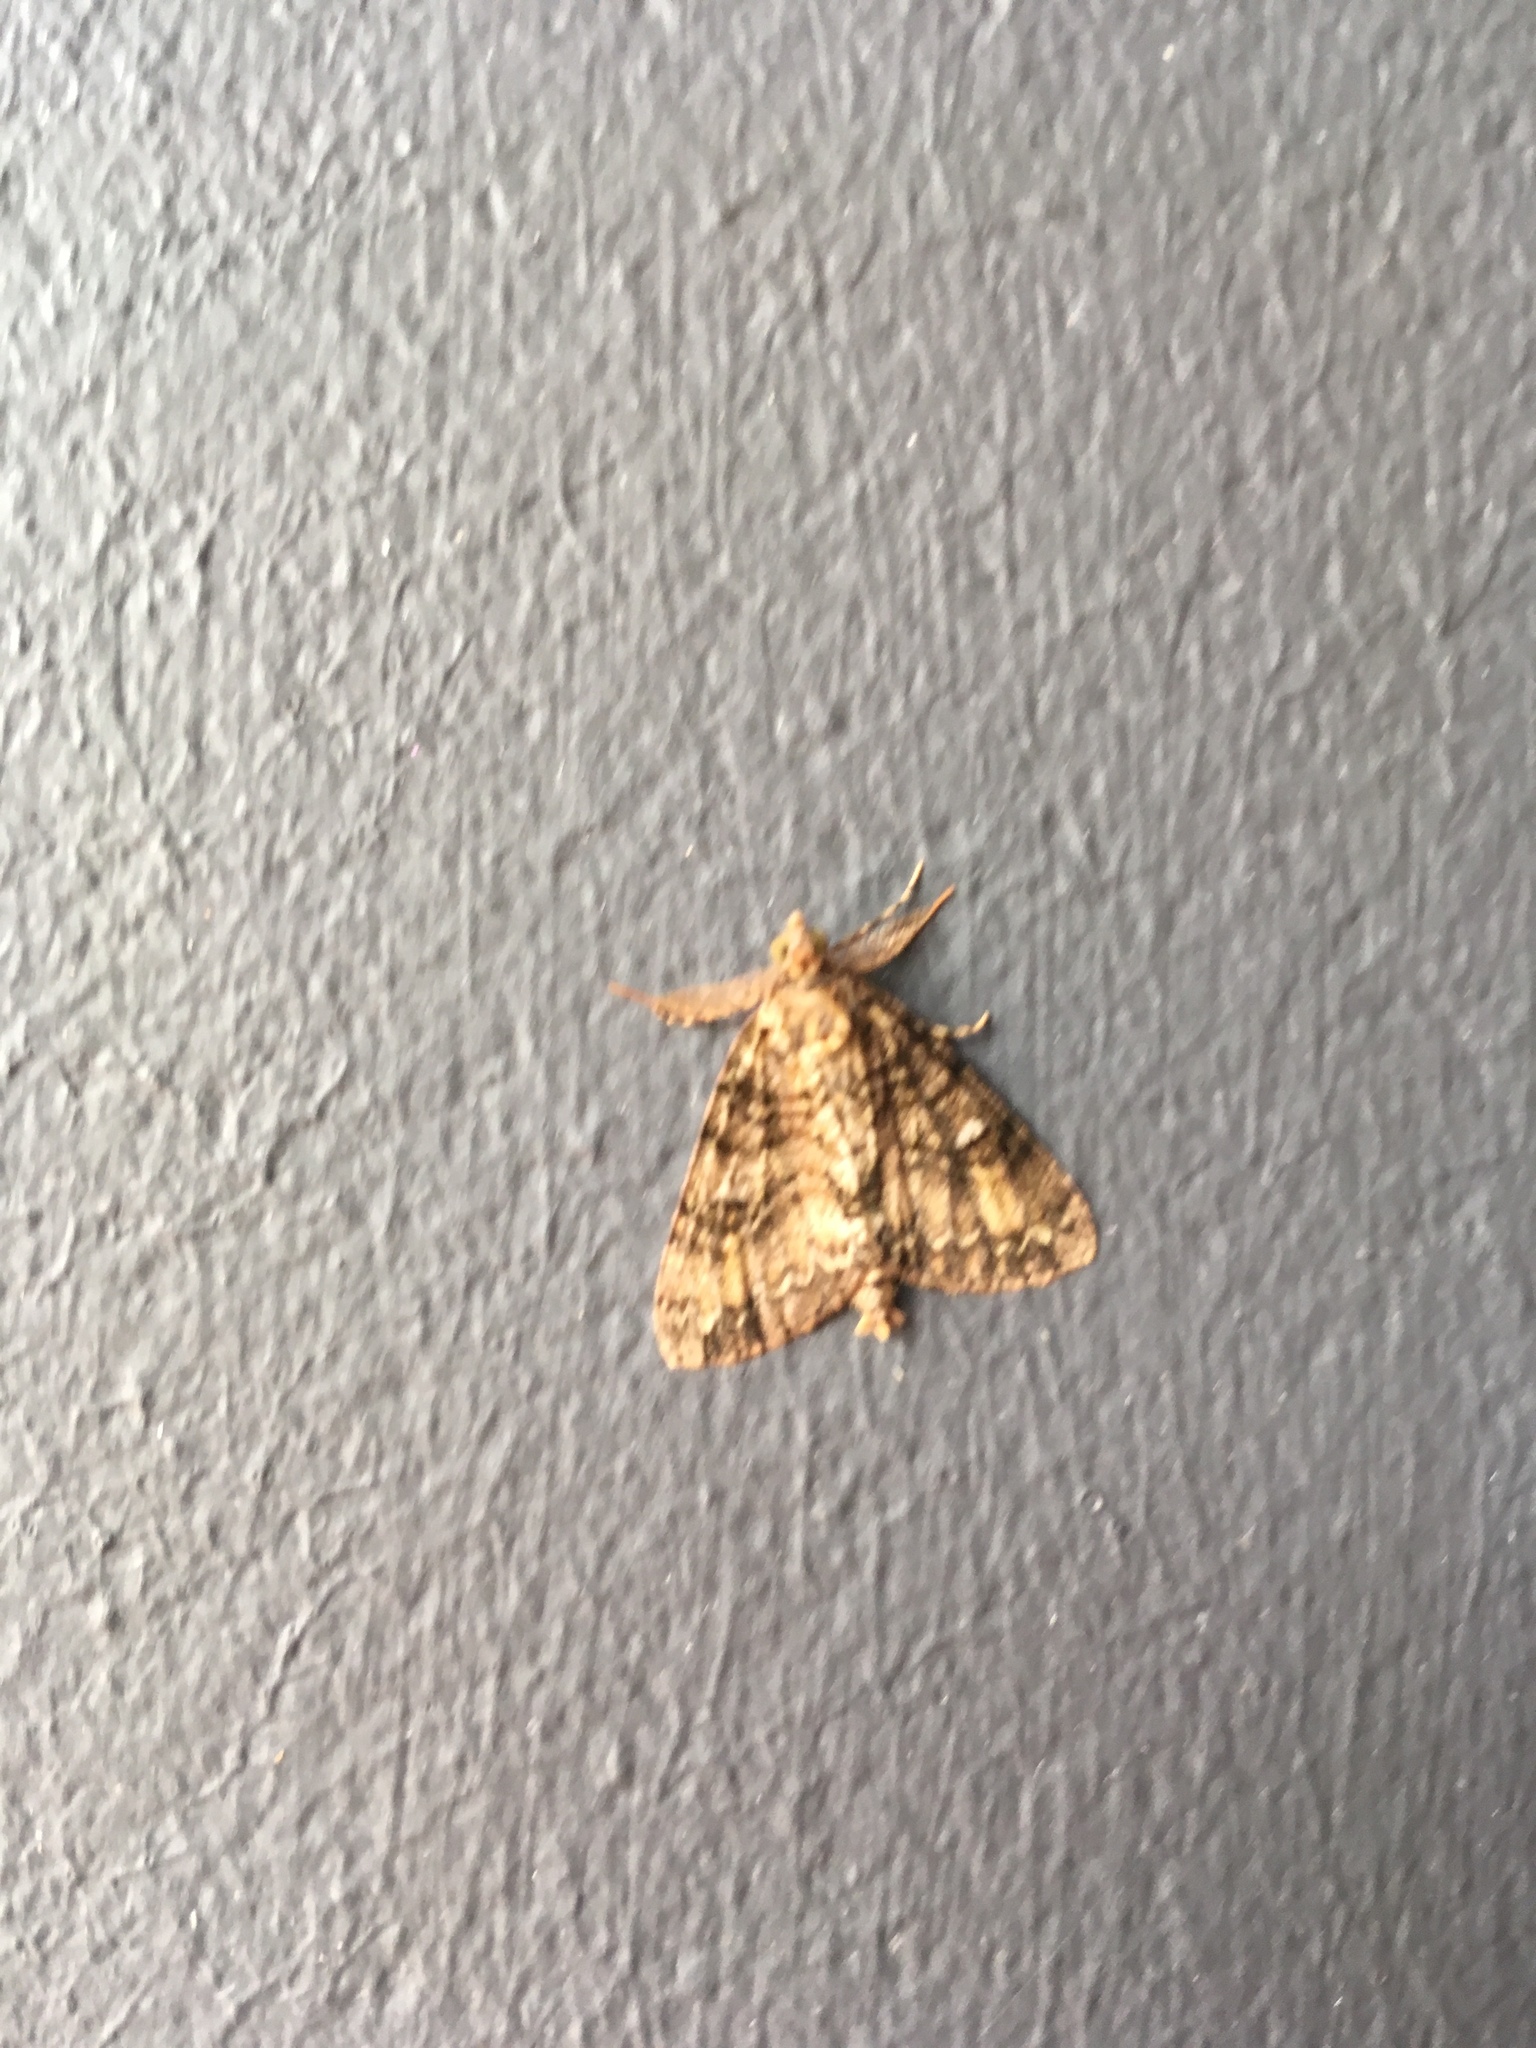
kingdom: Animalia
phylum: Arthropoda
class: Insecta
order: Lepidoptera
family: Geometridae
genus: Pseudocoremia
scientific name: Pseudocoremia suavis
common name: Common forest looper
